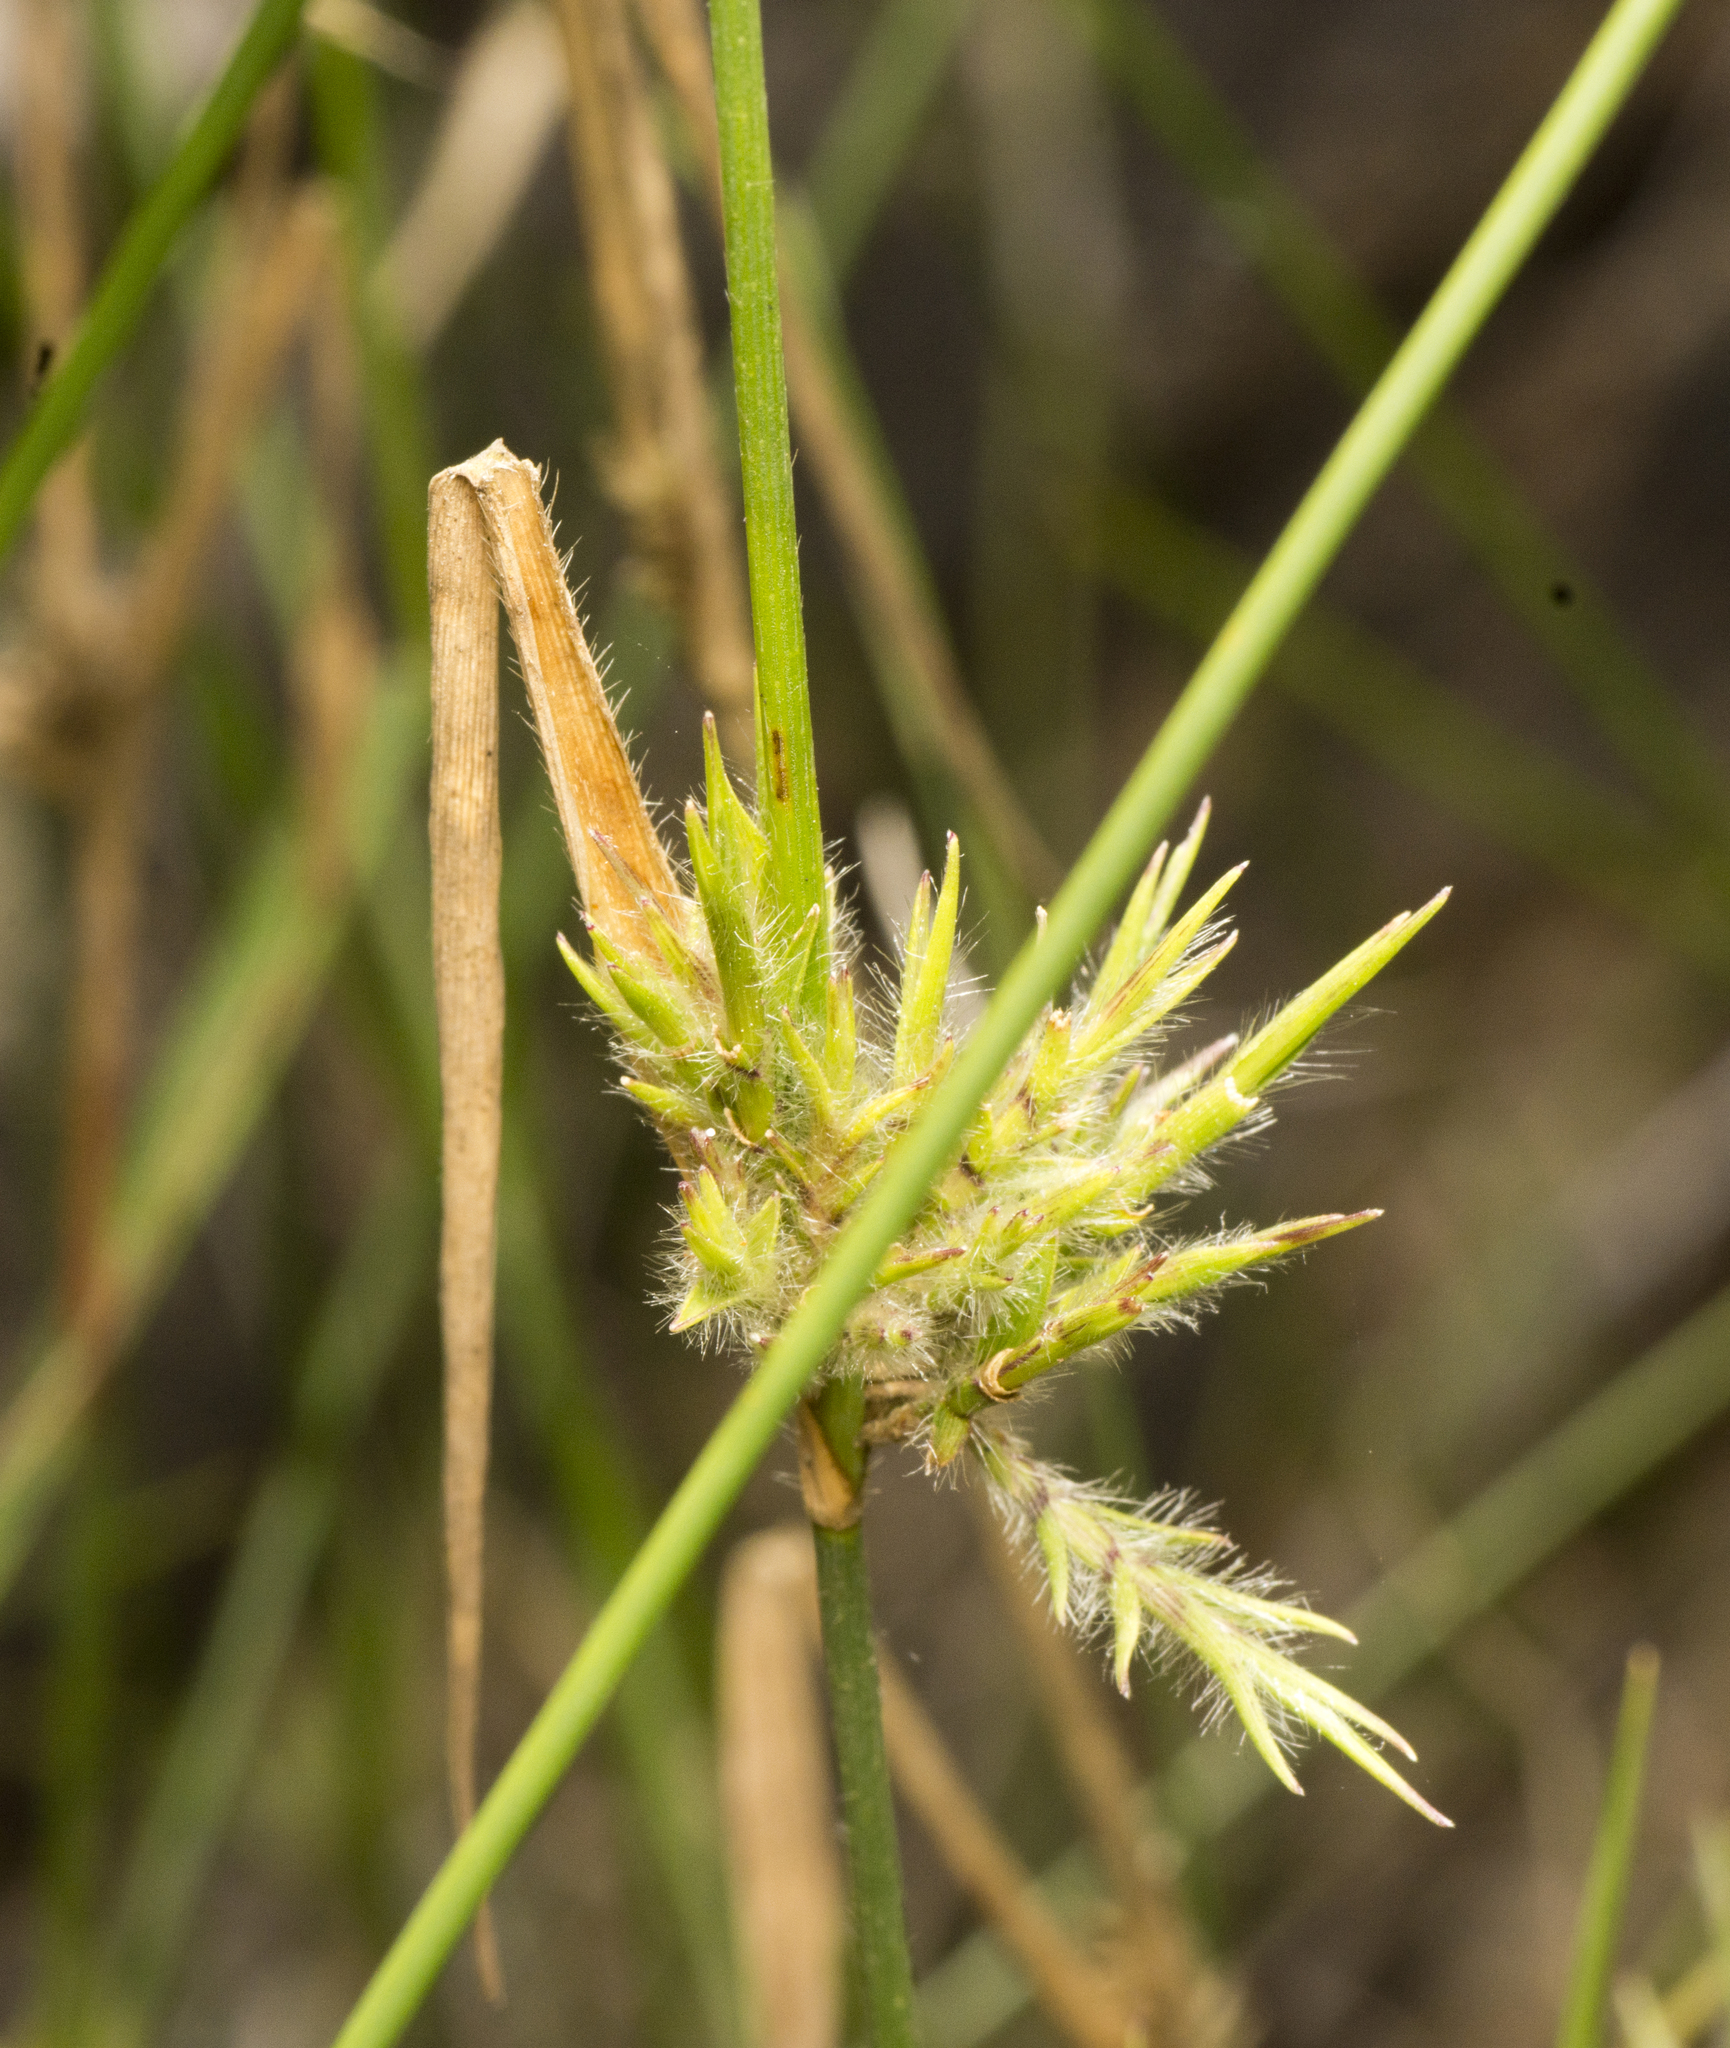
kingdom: Plantae
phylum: Tracheophyta
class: Liliopsida
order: Poales
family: Poaceae
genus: Entolasia
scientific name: Entolasia stricta
